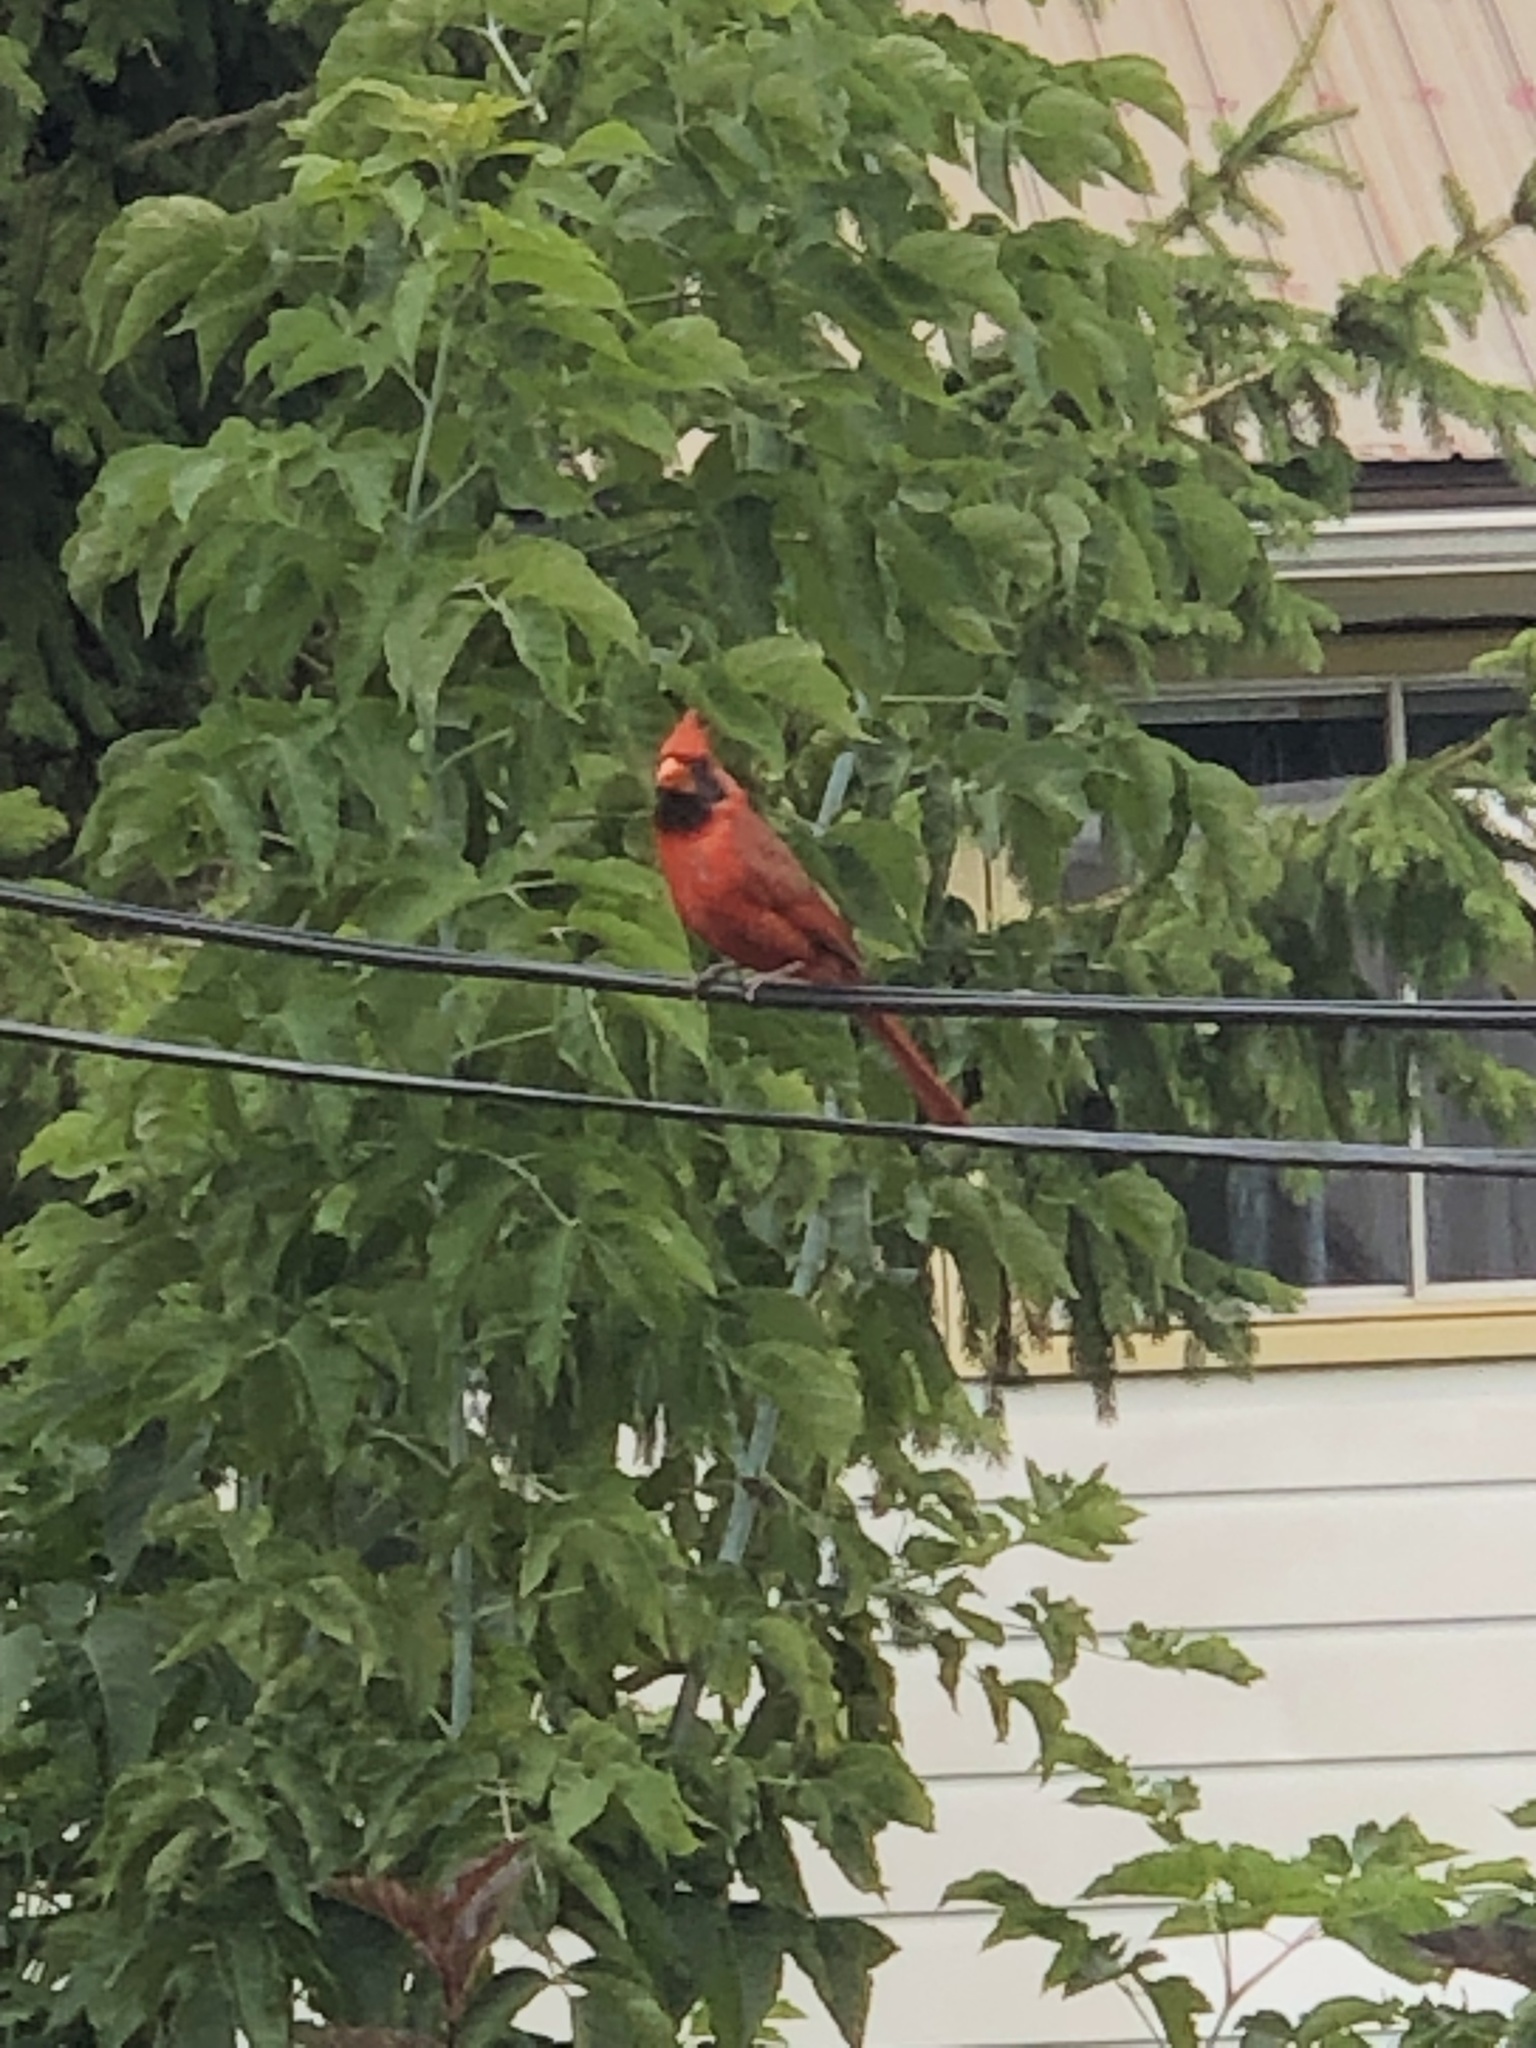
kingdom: Animalia
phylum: Chordata
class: Aves
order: Passeriformes
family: Cardinalidae
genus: Cardinalis
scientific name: Cardinalis cardinalis
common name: Northern cardinal
